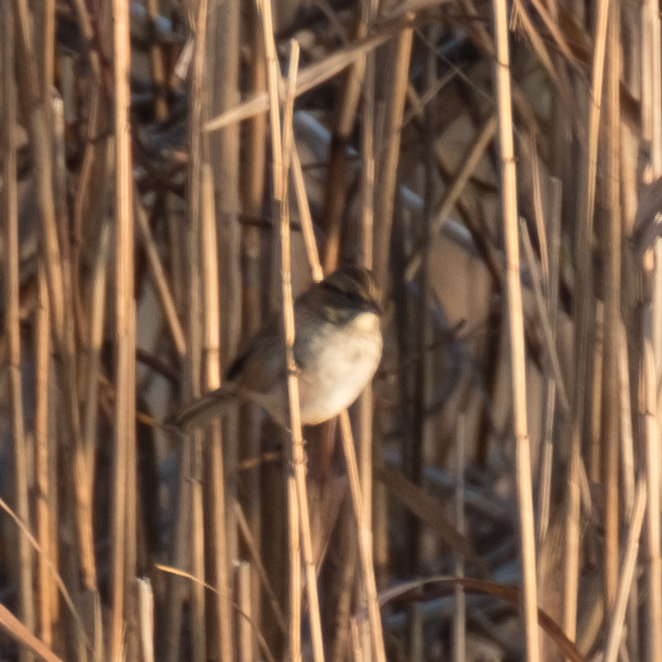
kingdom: Animalia
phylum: Chordata
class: Aves
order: Passeriformes
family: Passerellidae
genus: Melospiza
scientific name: Melospiza georgiana
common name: Swamp sparrow
